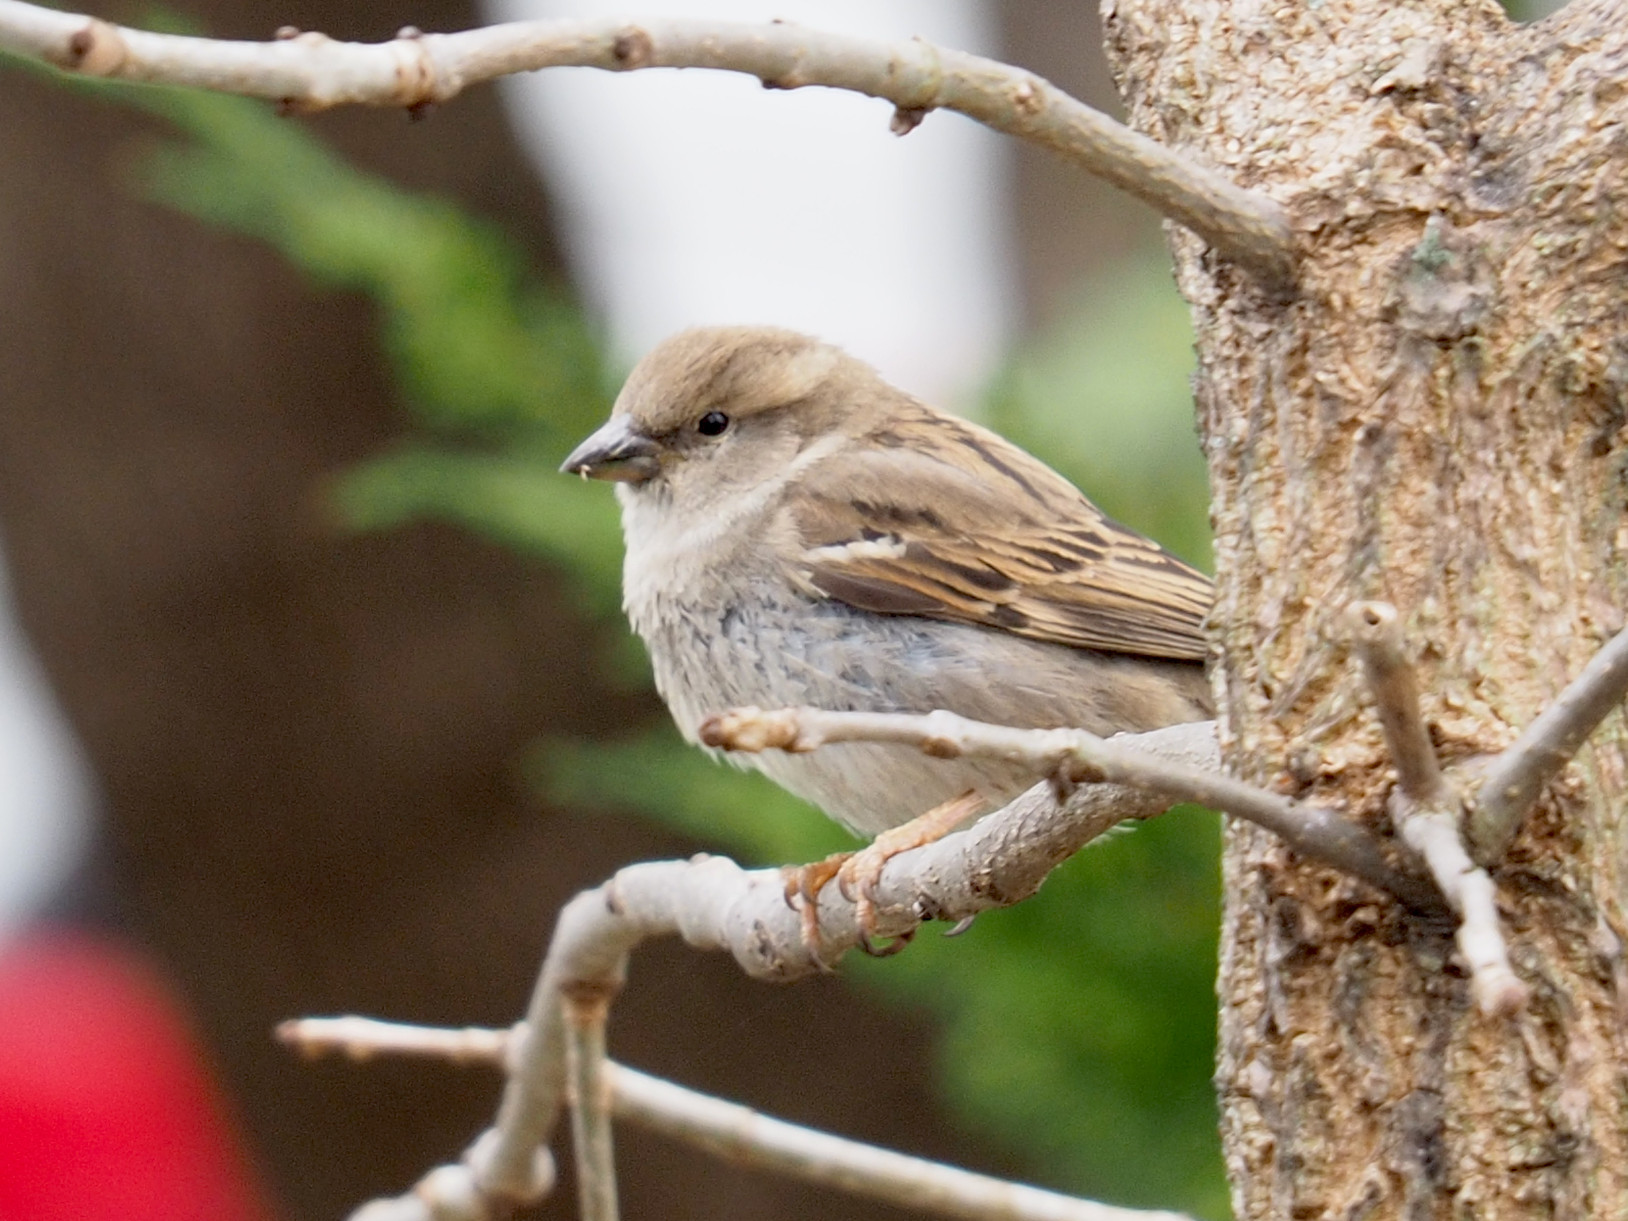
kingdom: Animalia
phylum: Chordata
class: Aves
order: Passeriformes
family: Passeridae
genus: Passer
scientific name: Passer domesticus
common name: House sparrow
